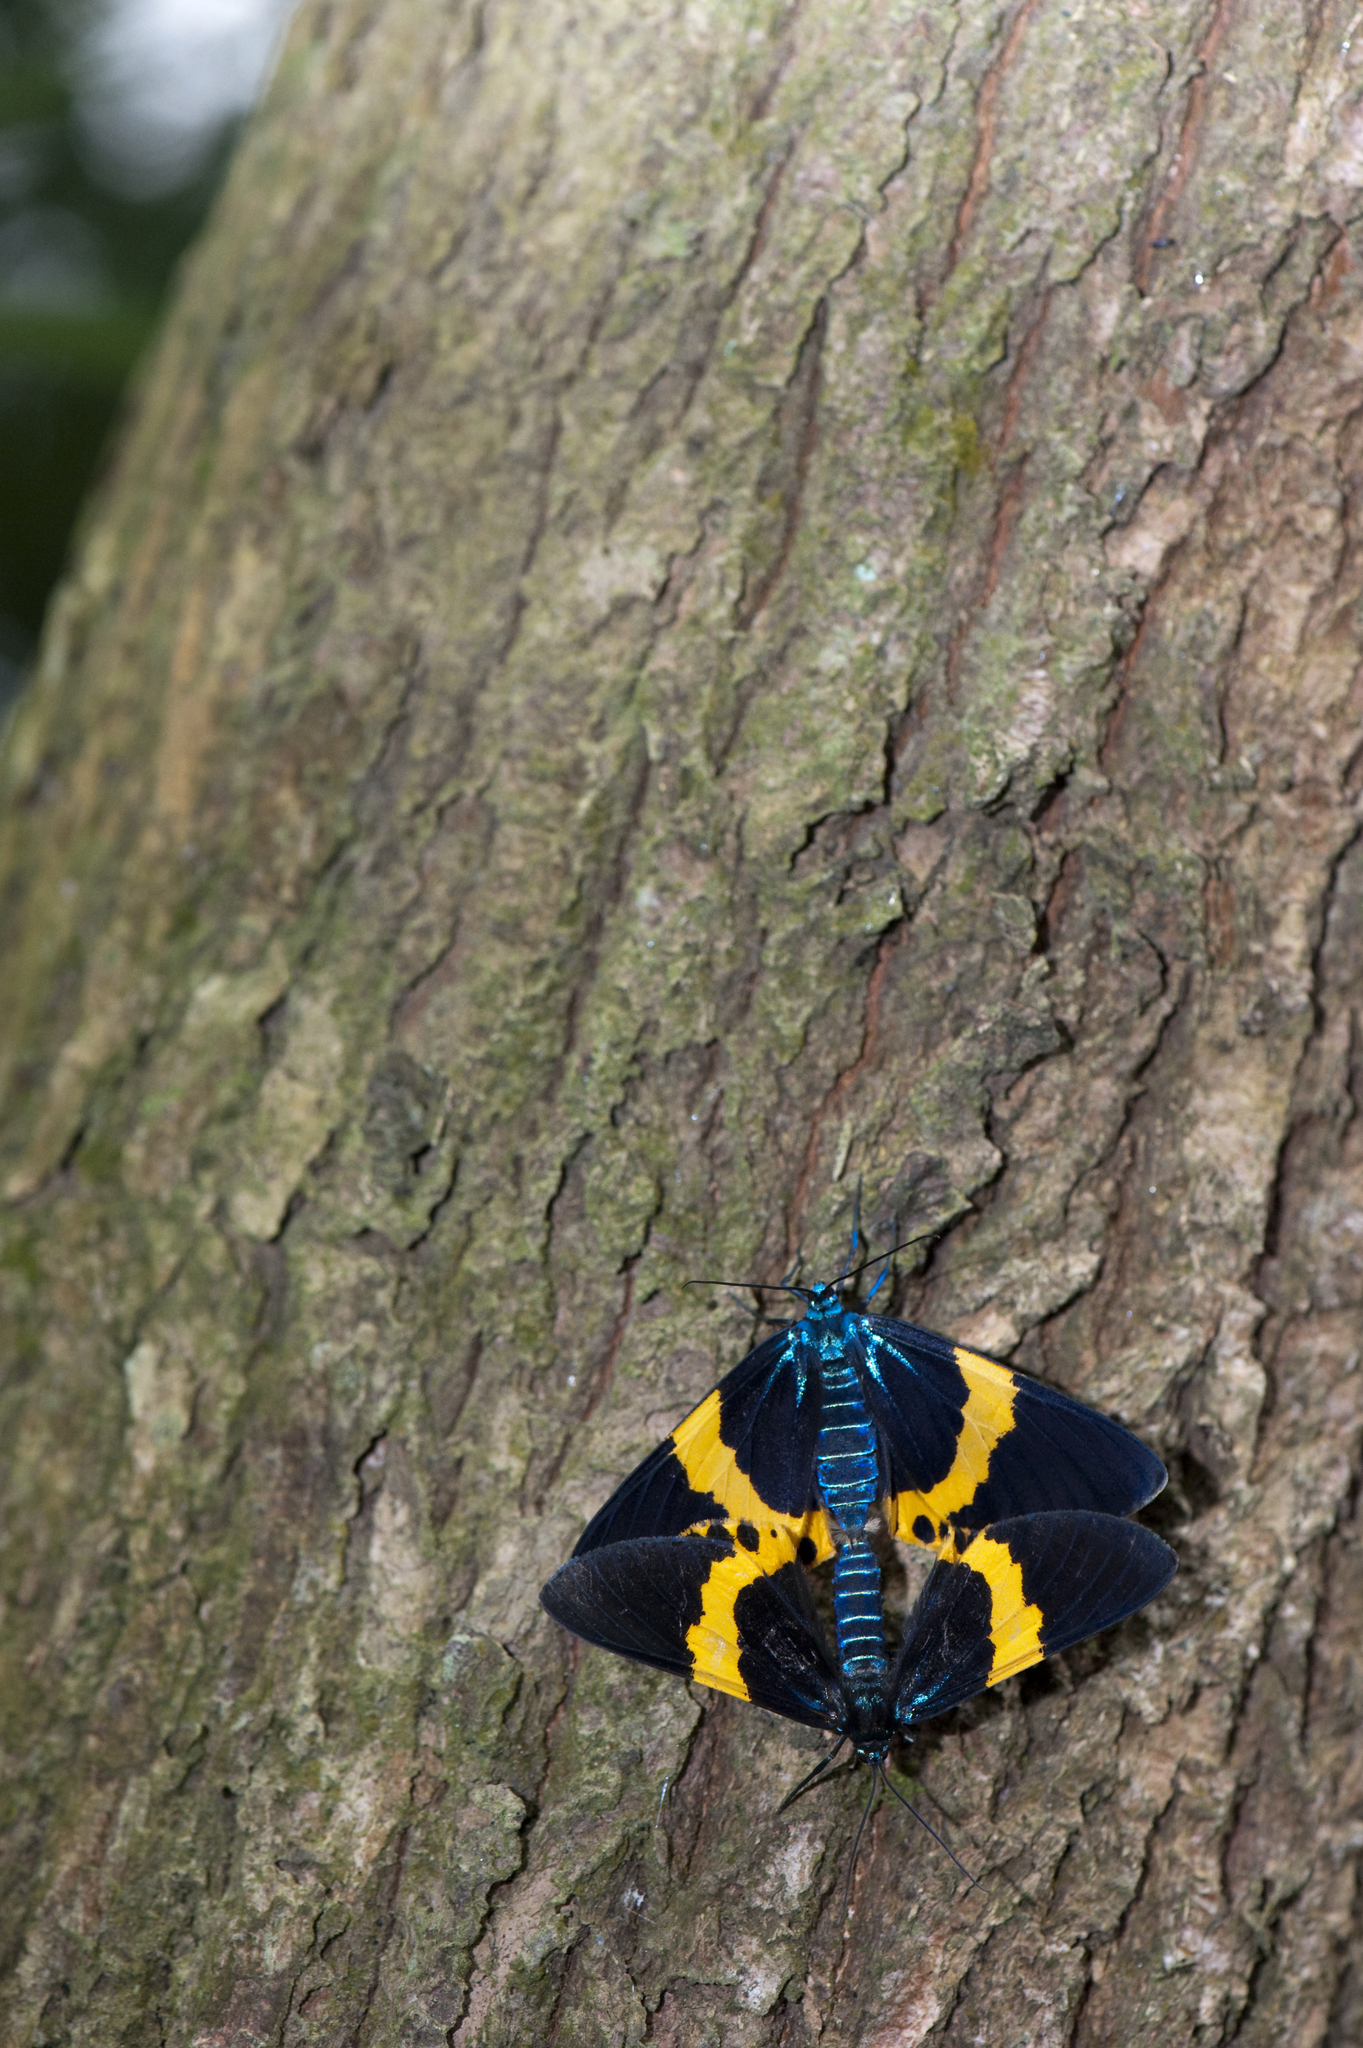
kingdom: Animalia
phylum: Arthropoda
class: Insecta
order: Lepidoptera
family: Geometridae
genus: Milionia
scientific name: Milionia basalis
